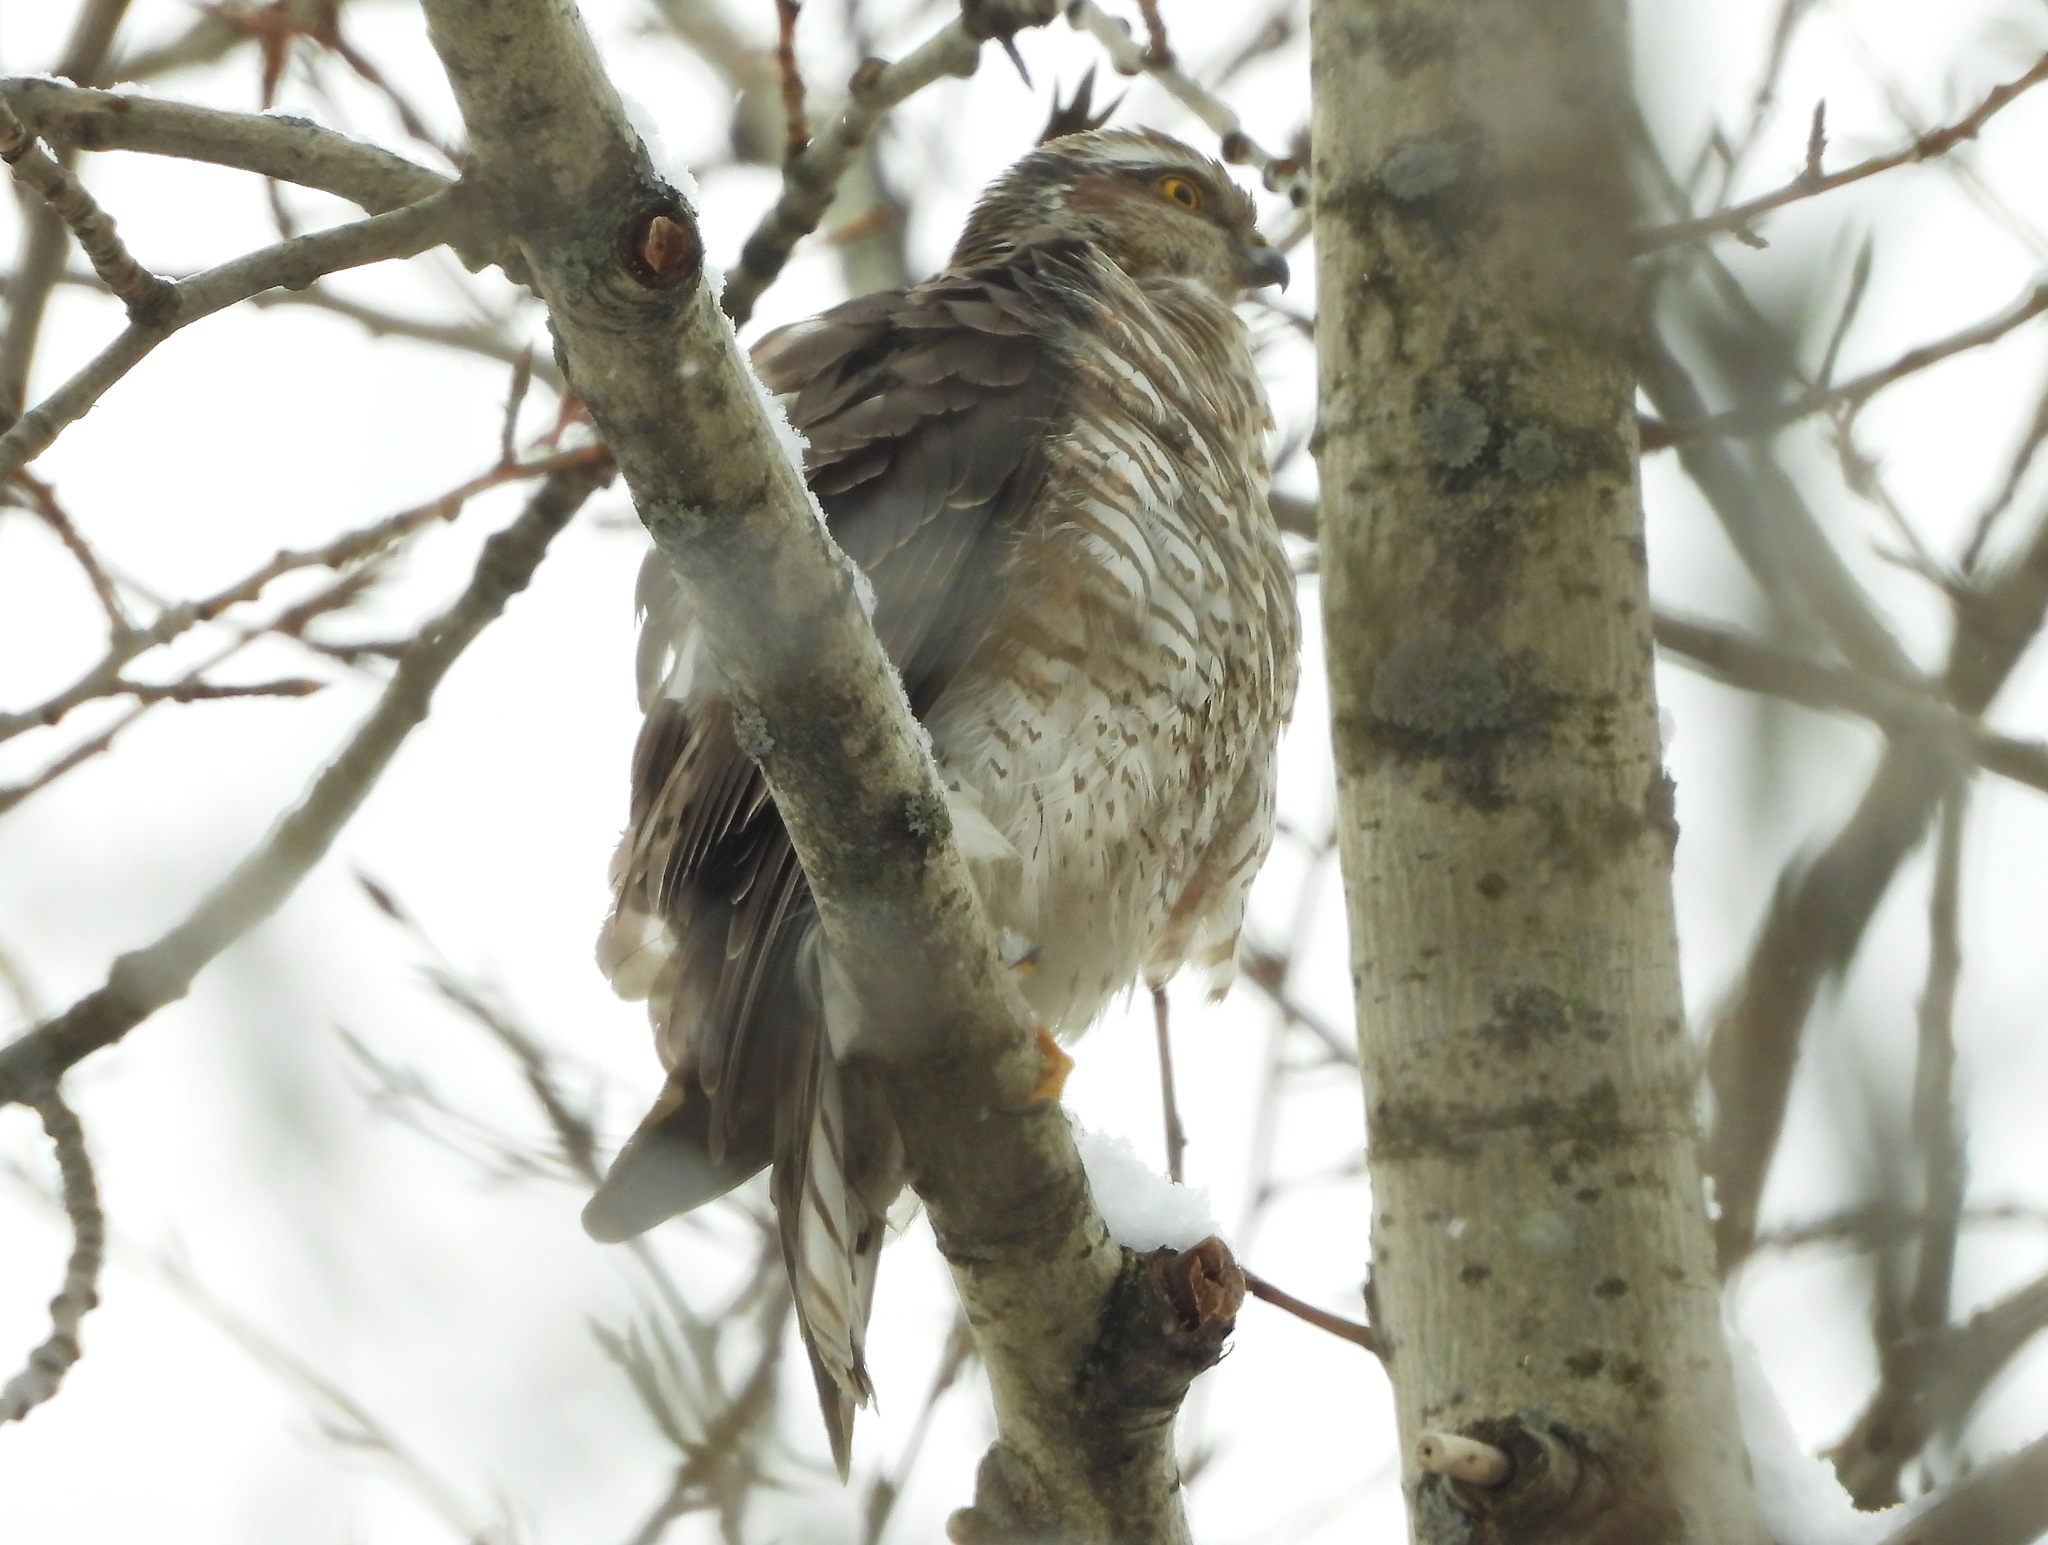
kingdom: Animalia
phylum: Chordata
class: Aves
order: Accipitriformes
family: Accipitridae
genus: Accipiter
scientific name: Accipiter nisus
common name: Eurasian sparrowhawk
